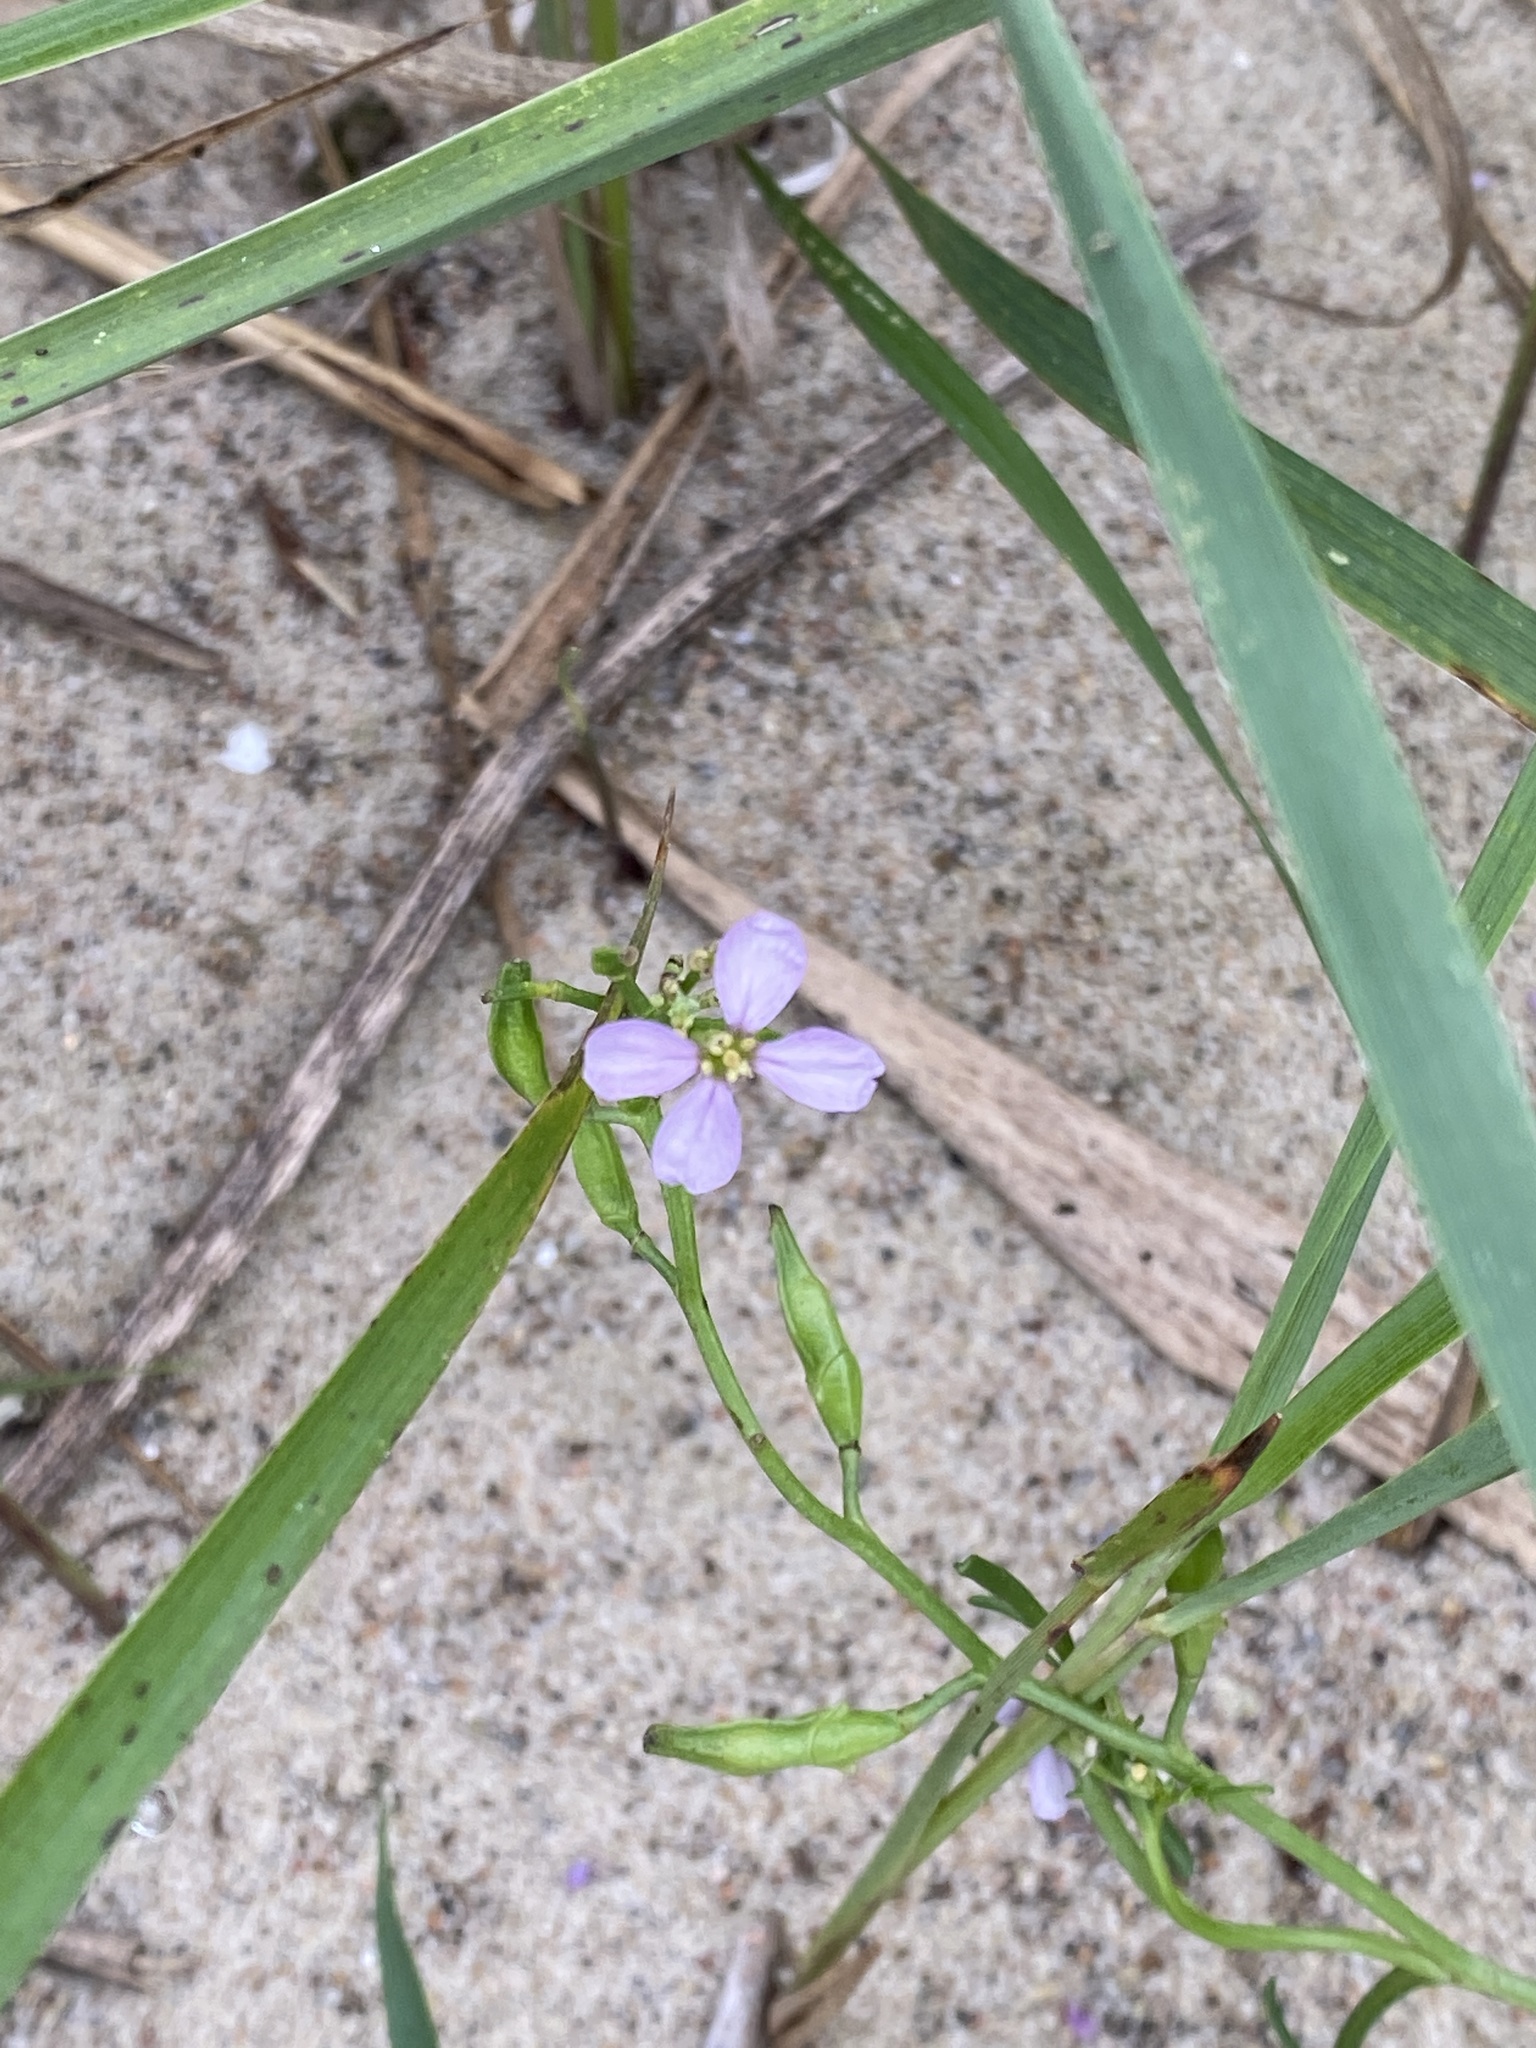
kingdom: Plantae
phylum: Tracheophyta
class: Magnoliopsida
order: Brassicales
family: Brassicaceae
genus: Cakile
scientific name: Cakile maritima
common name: Sea rocket
